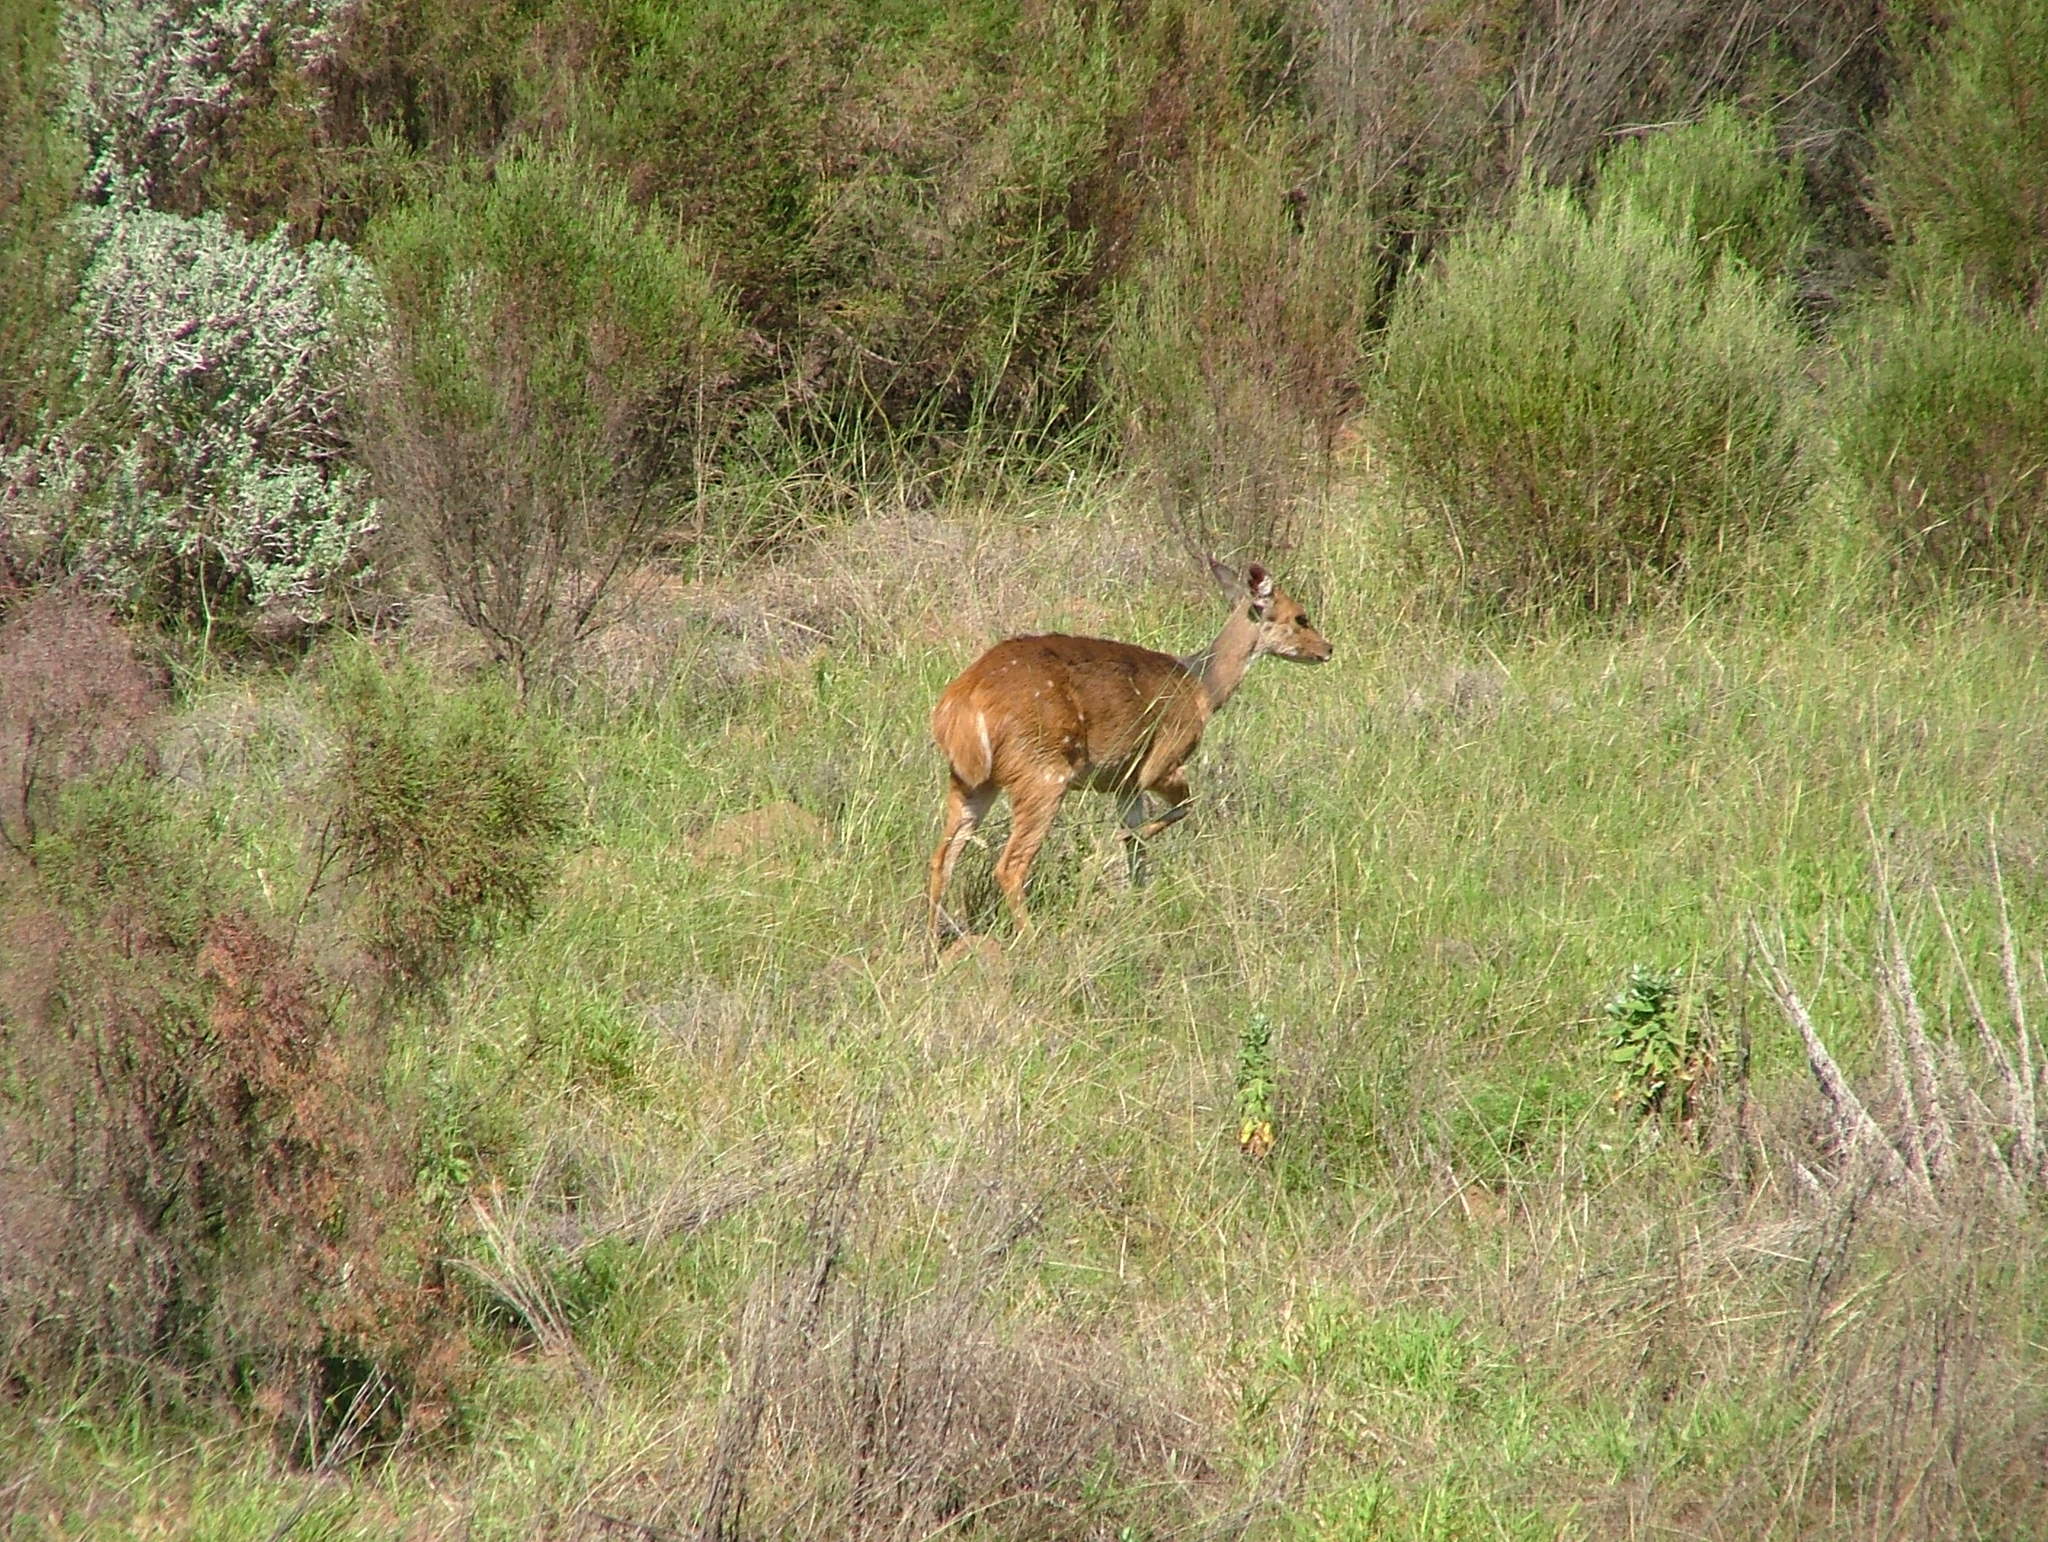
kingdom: Animalia
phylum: Chordata
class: Mammalia
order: Artiodactyla
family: Bovidae
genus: Tragelaphus
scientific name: Tragelaphus scriptus
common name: Bushbuck
